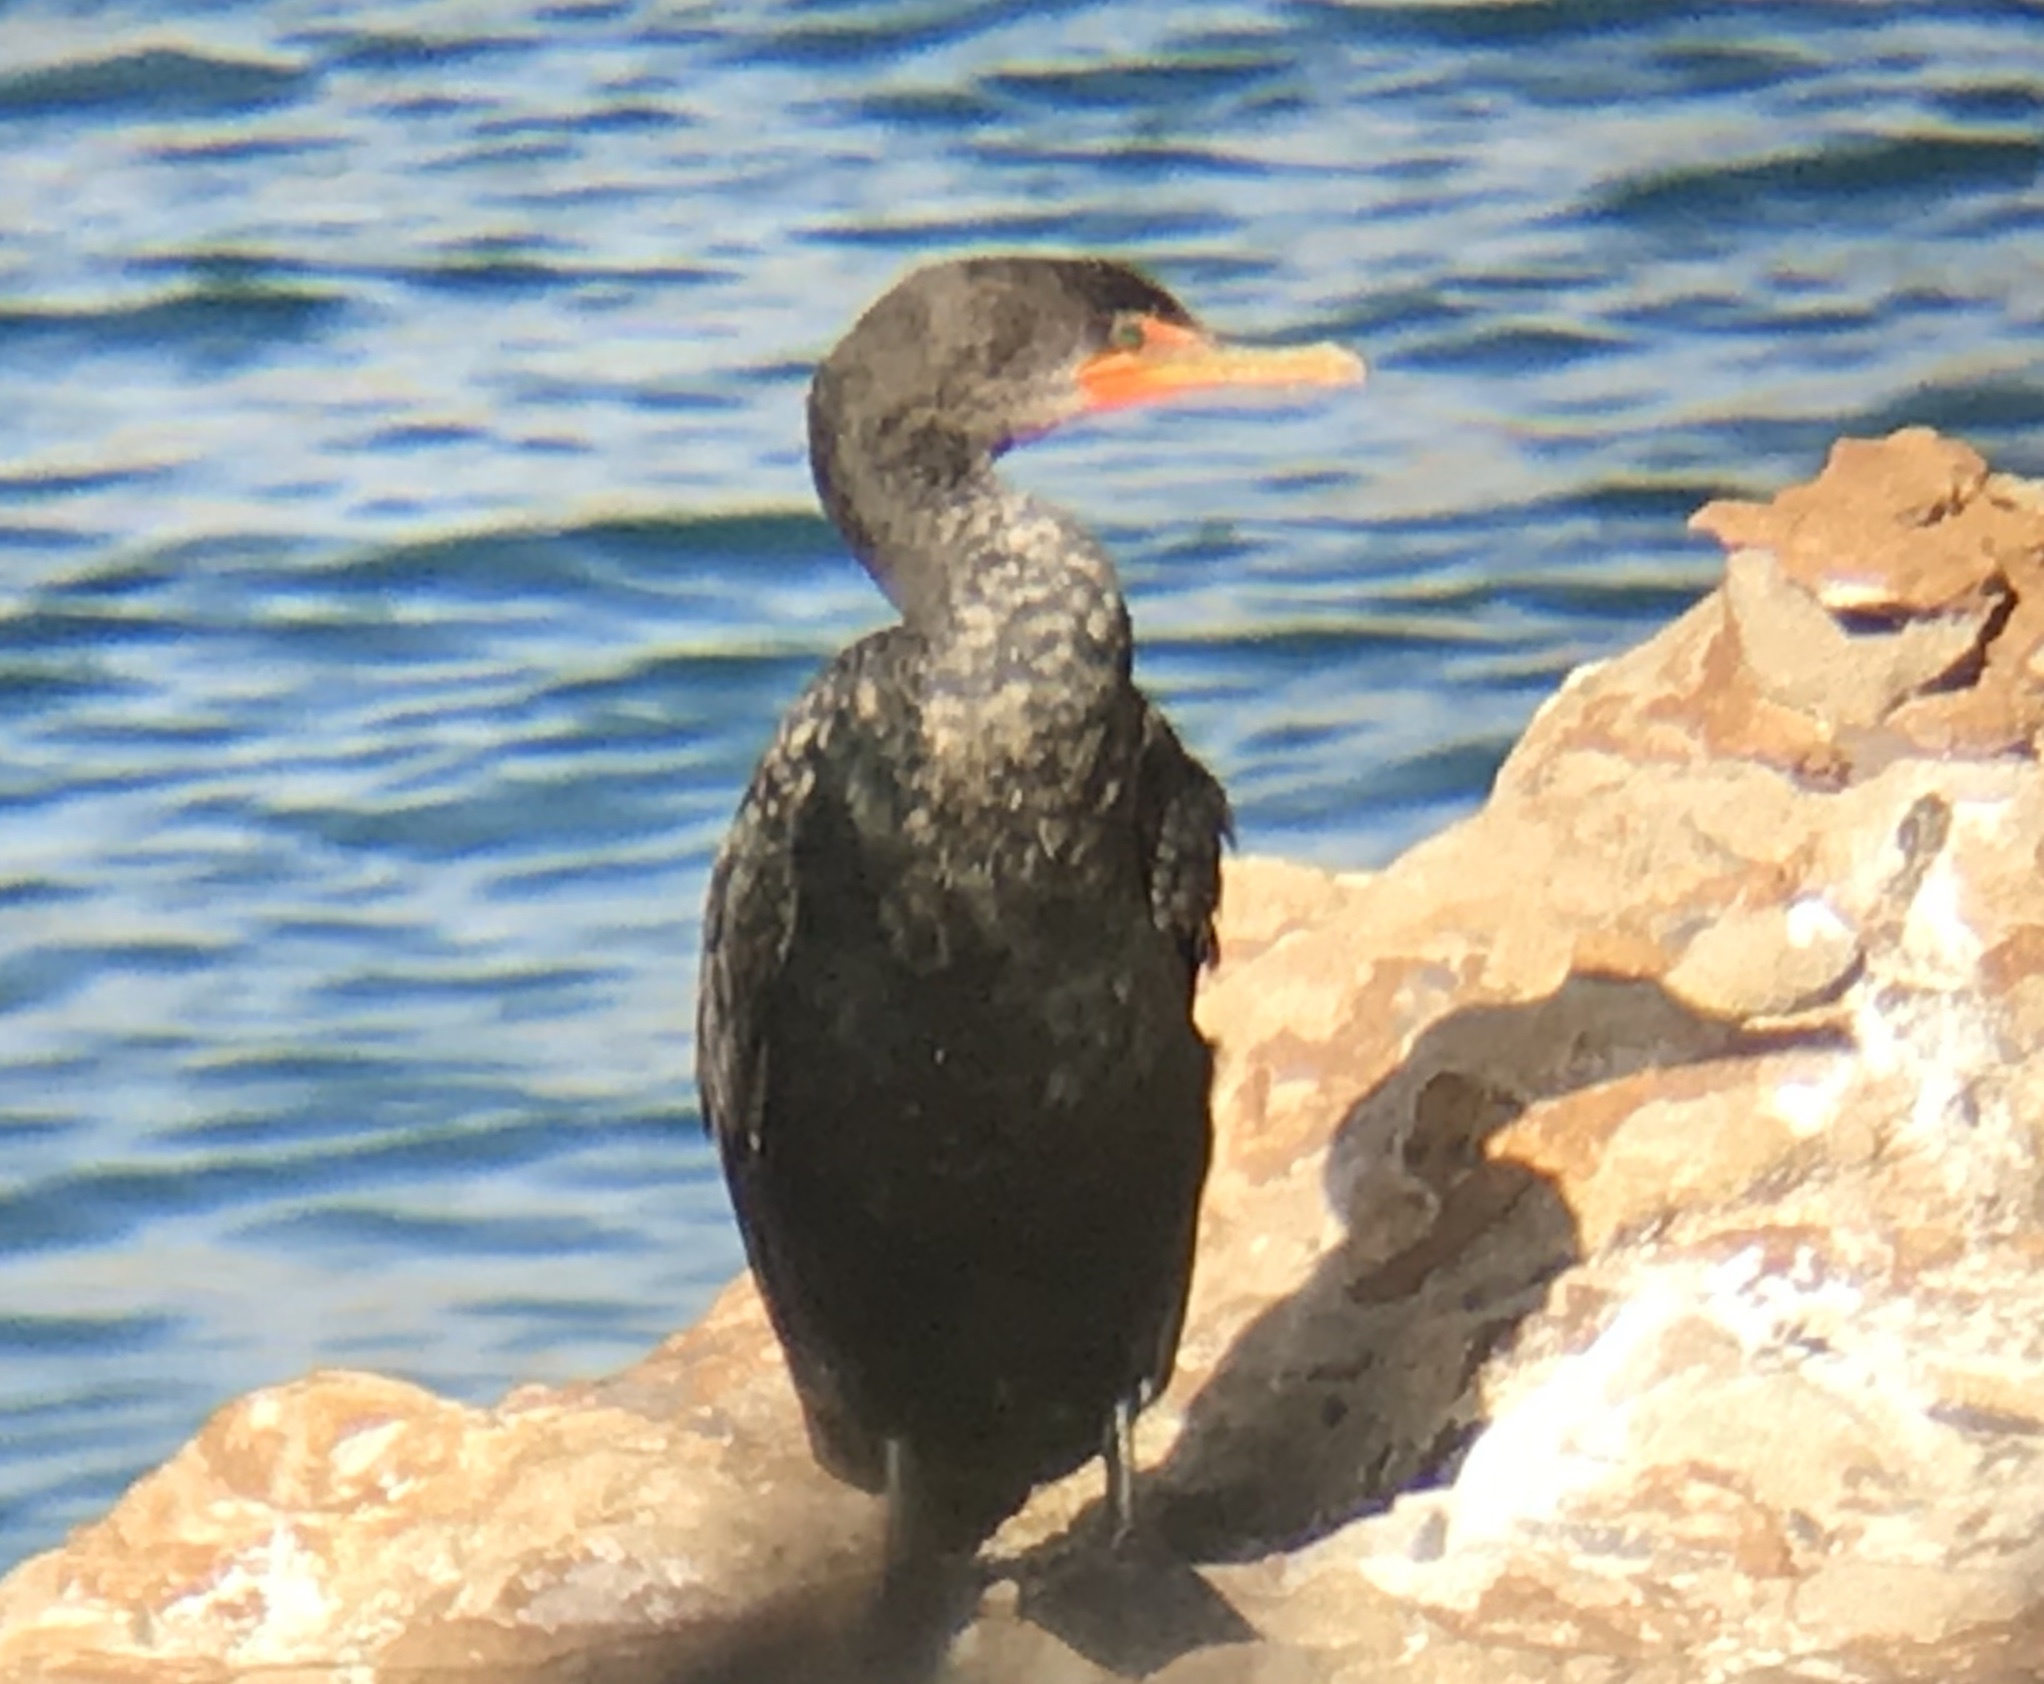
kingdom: Animalia
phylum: Chordata
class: Aves
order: Suliformes
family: Phalacrocoracidae
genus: Phalacrocorax
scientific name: Phalacrocorax auritus
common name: Double-crested cormorant
